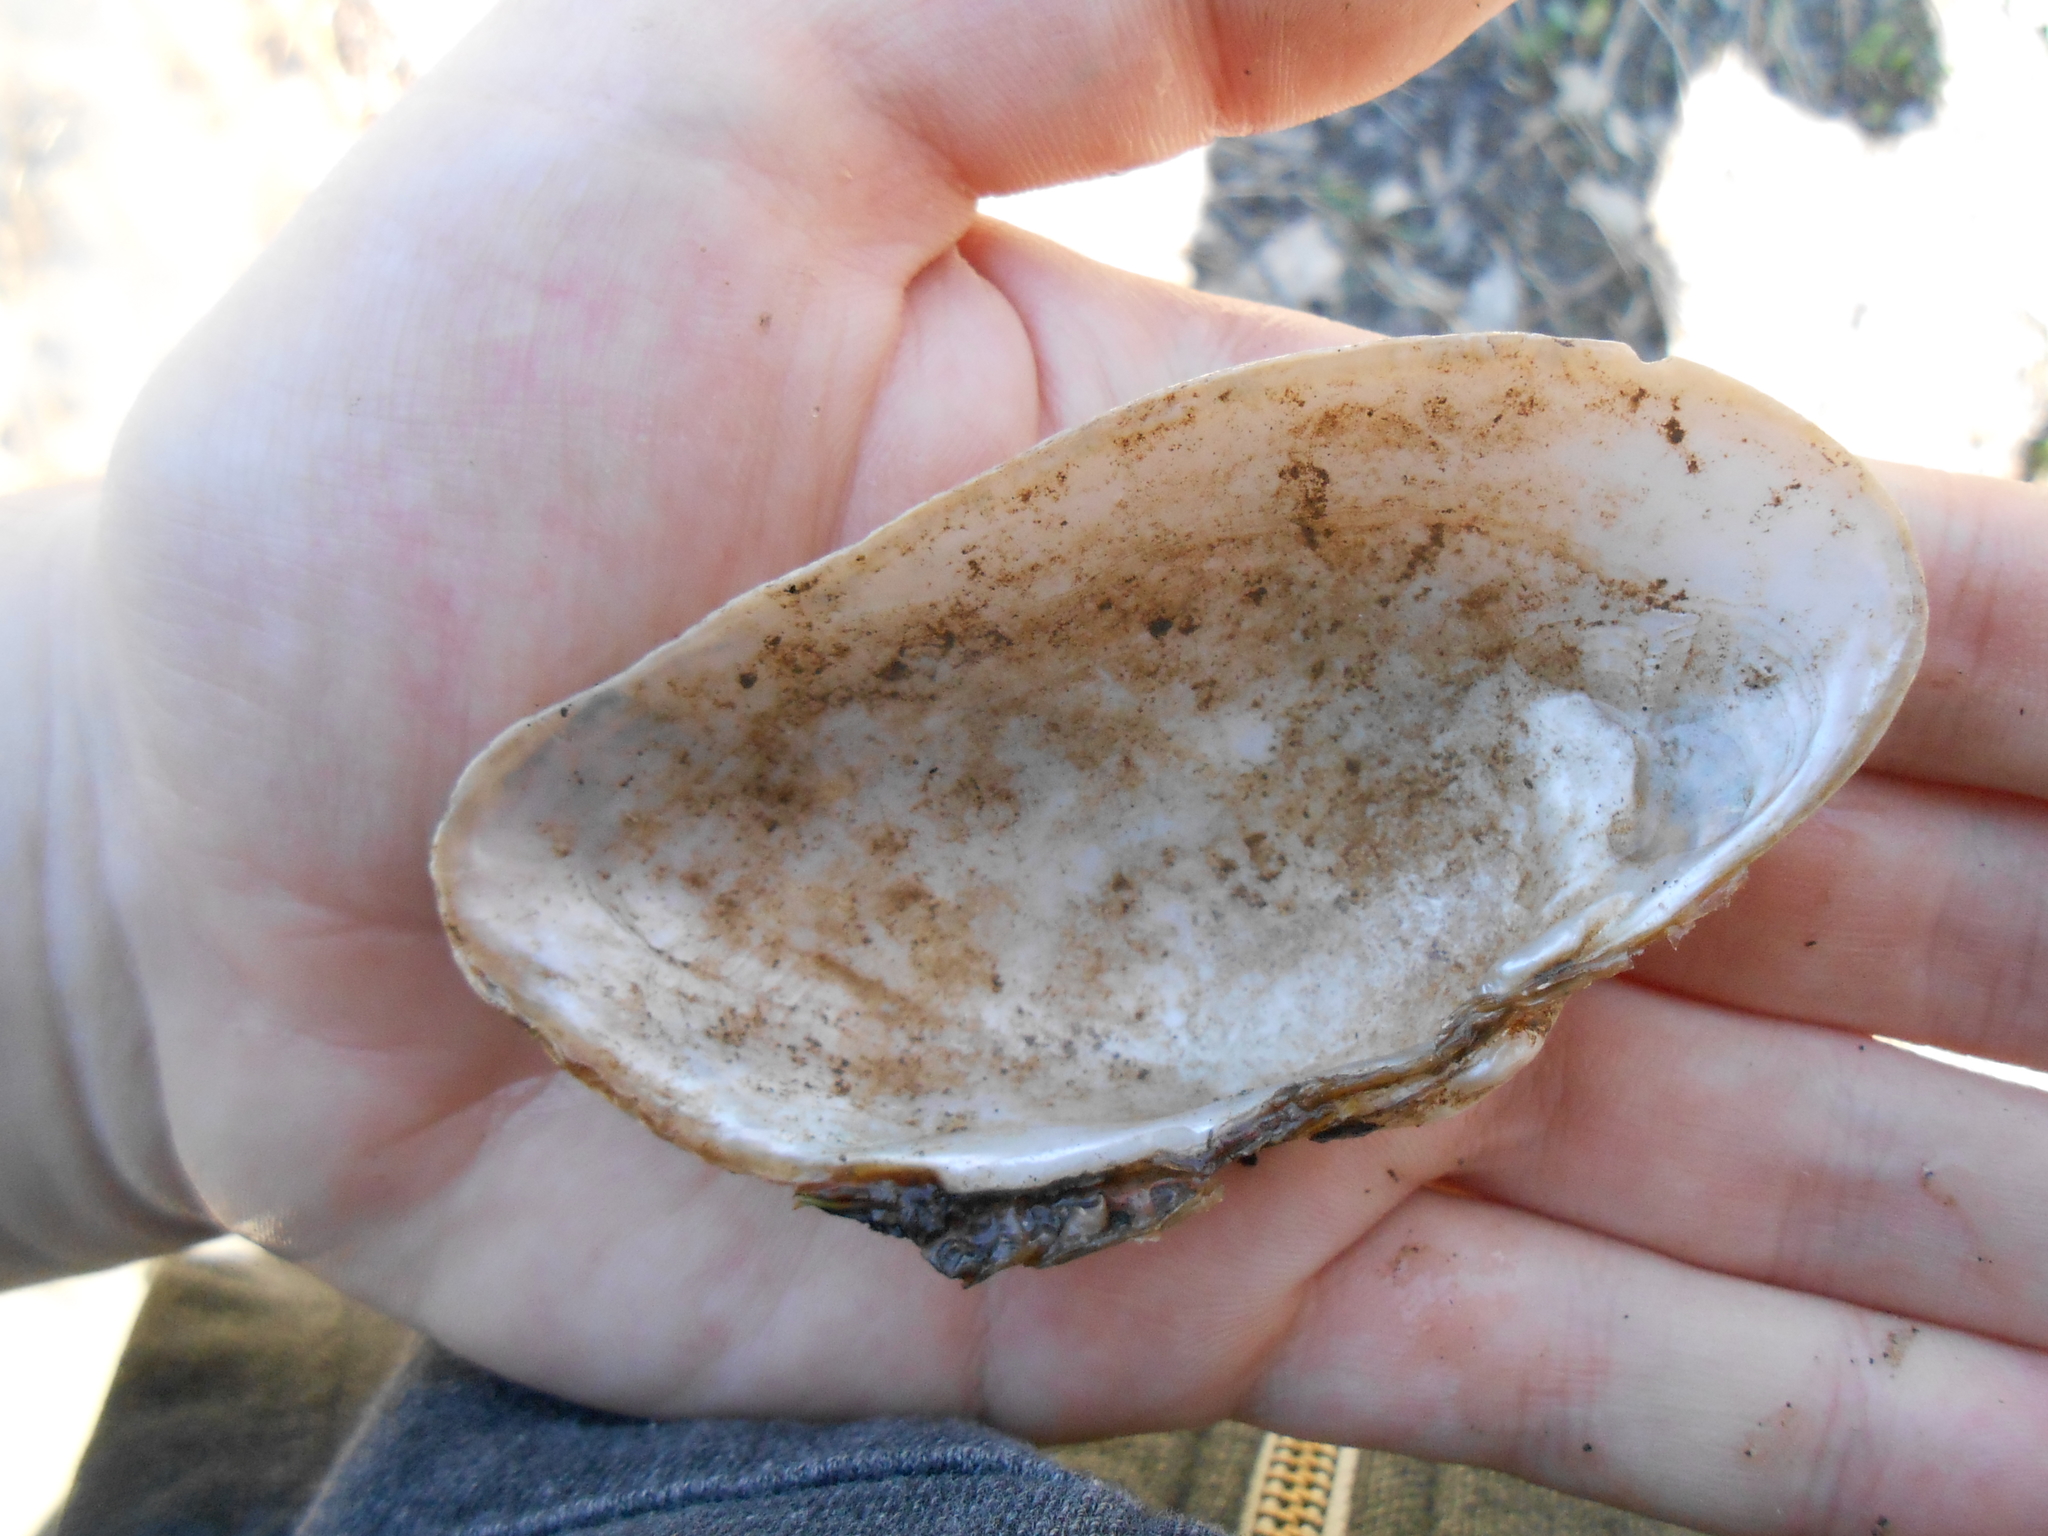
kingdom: Animalia
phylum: Mollusca
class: Bivalvia
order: Unionida
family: Unionidae
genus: Alasmidonta
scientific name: Alasmidonta marginata
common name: Elktoe
